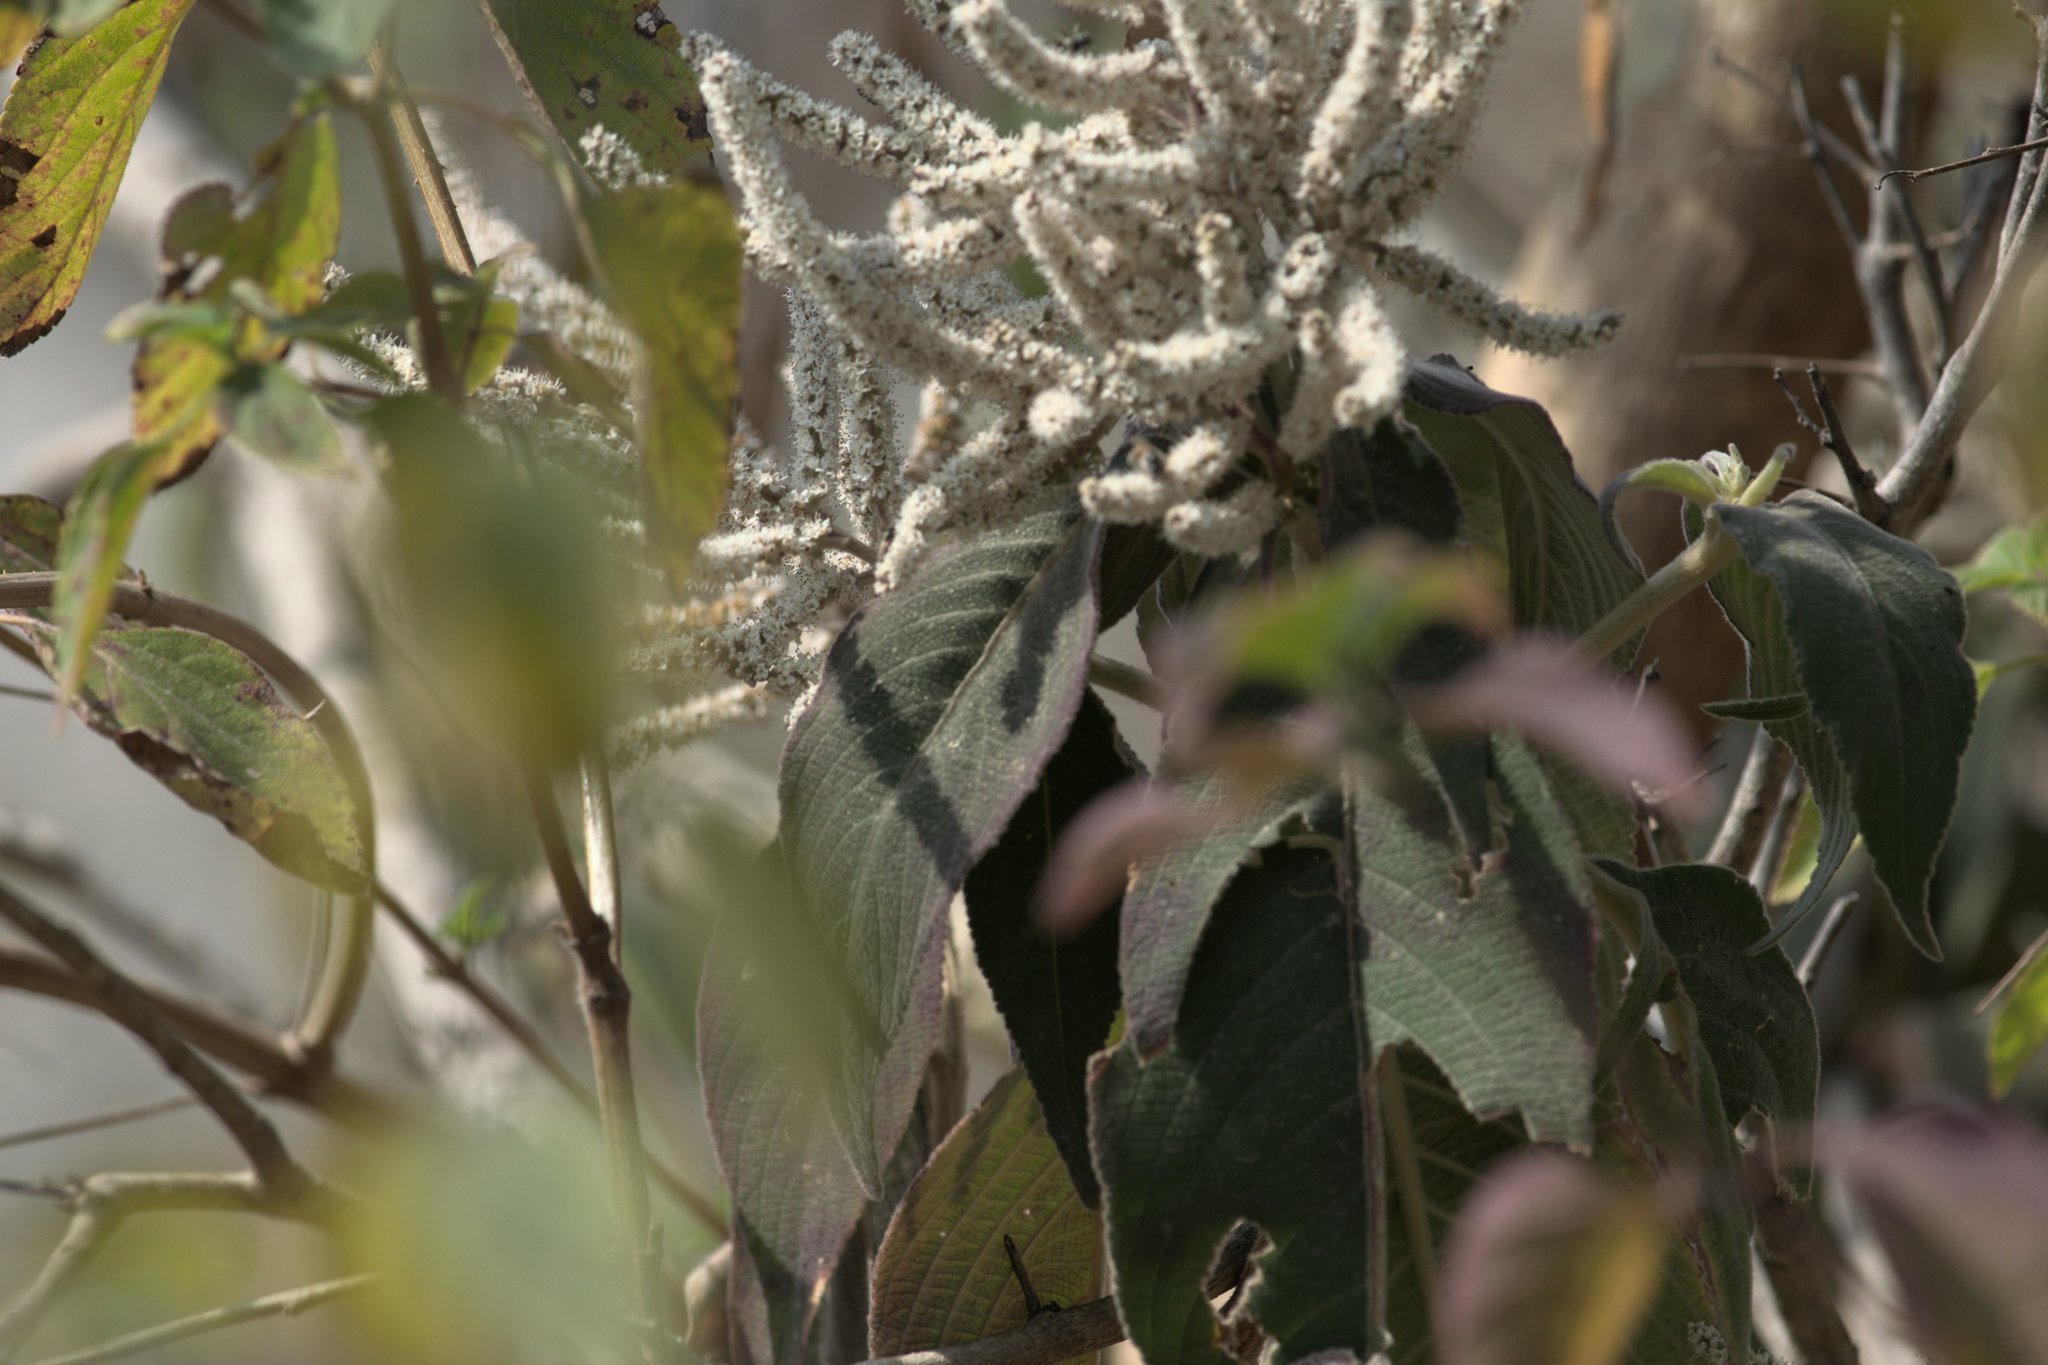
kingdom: Plantae
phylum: Tracheophyta
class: Magnoliopsida
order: Lamiales
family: Lamiaceae
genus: Colebrookea
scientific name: Colebrookea oppositifolia
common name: Indian squirrel tail
